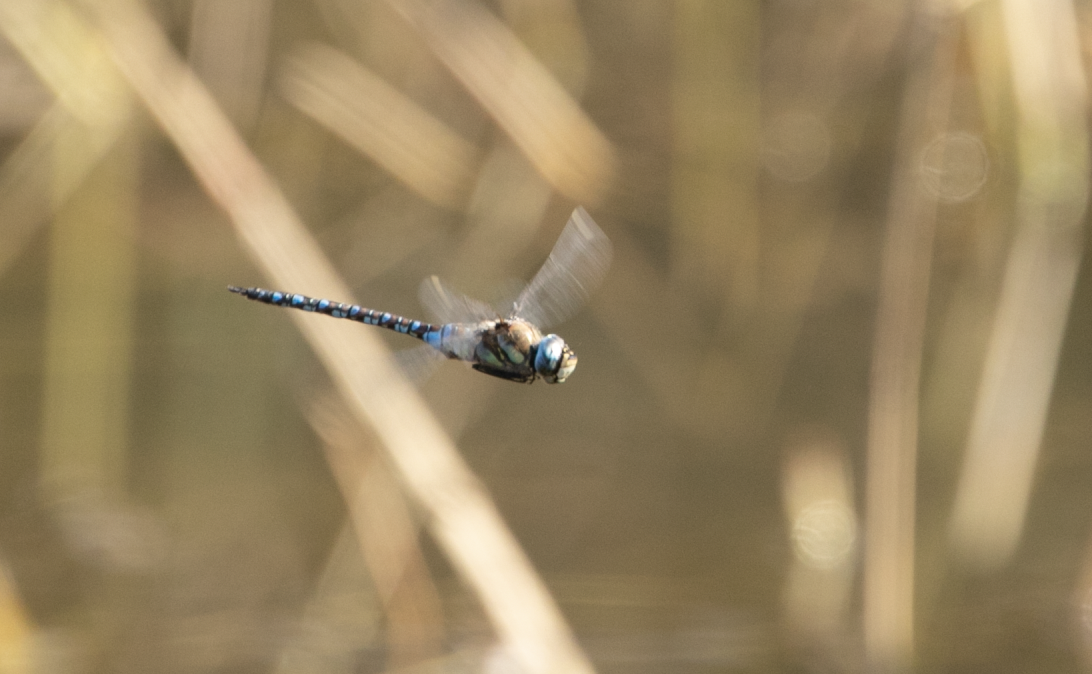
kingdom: Animalia
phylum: Arthropoda
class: Insecta
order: Odonata
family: Aeshnidae
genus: Aeshna
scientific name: Aeshna mixta
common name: Migrant hawker
